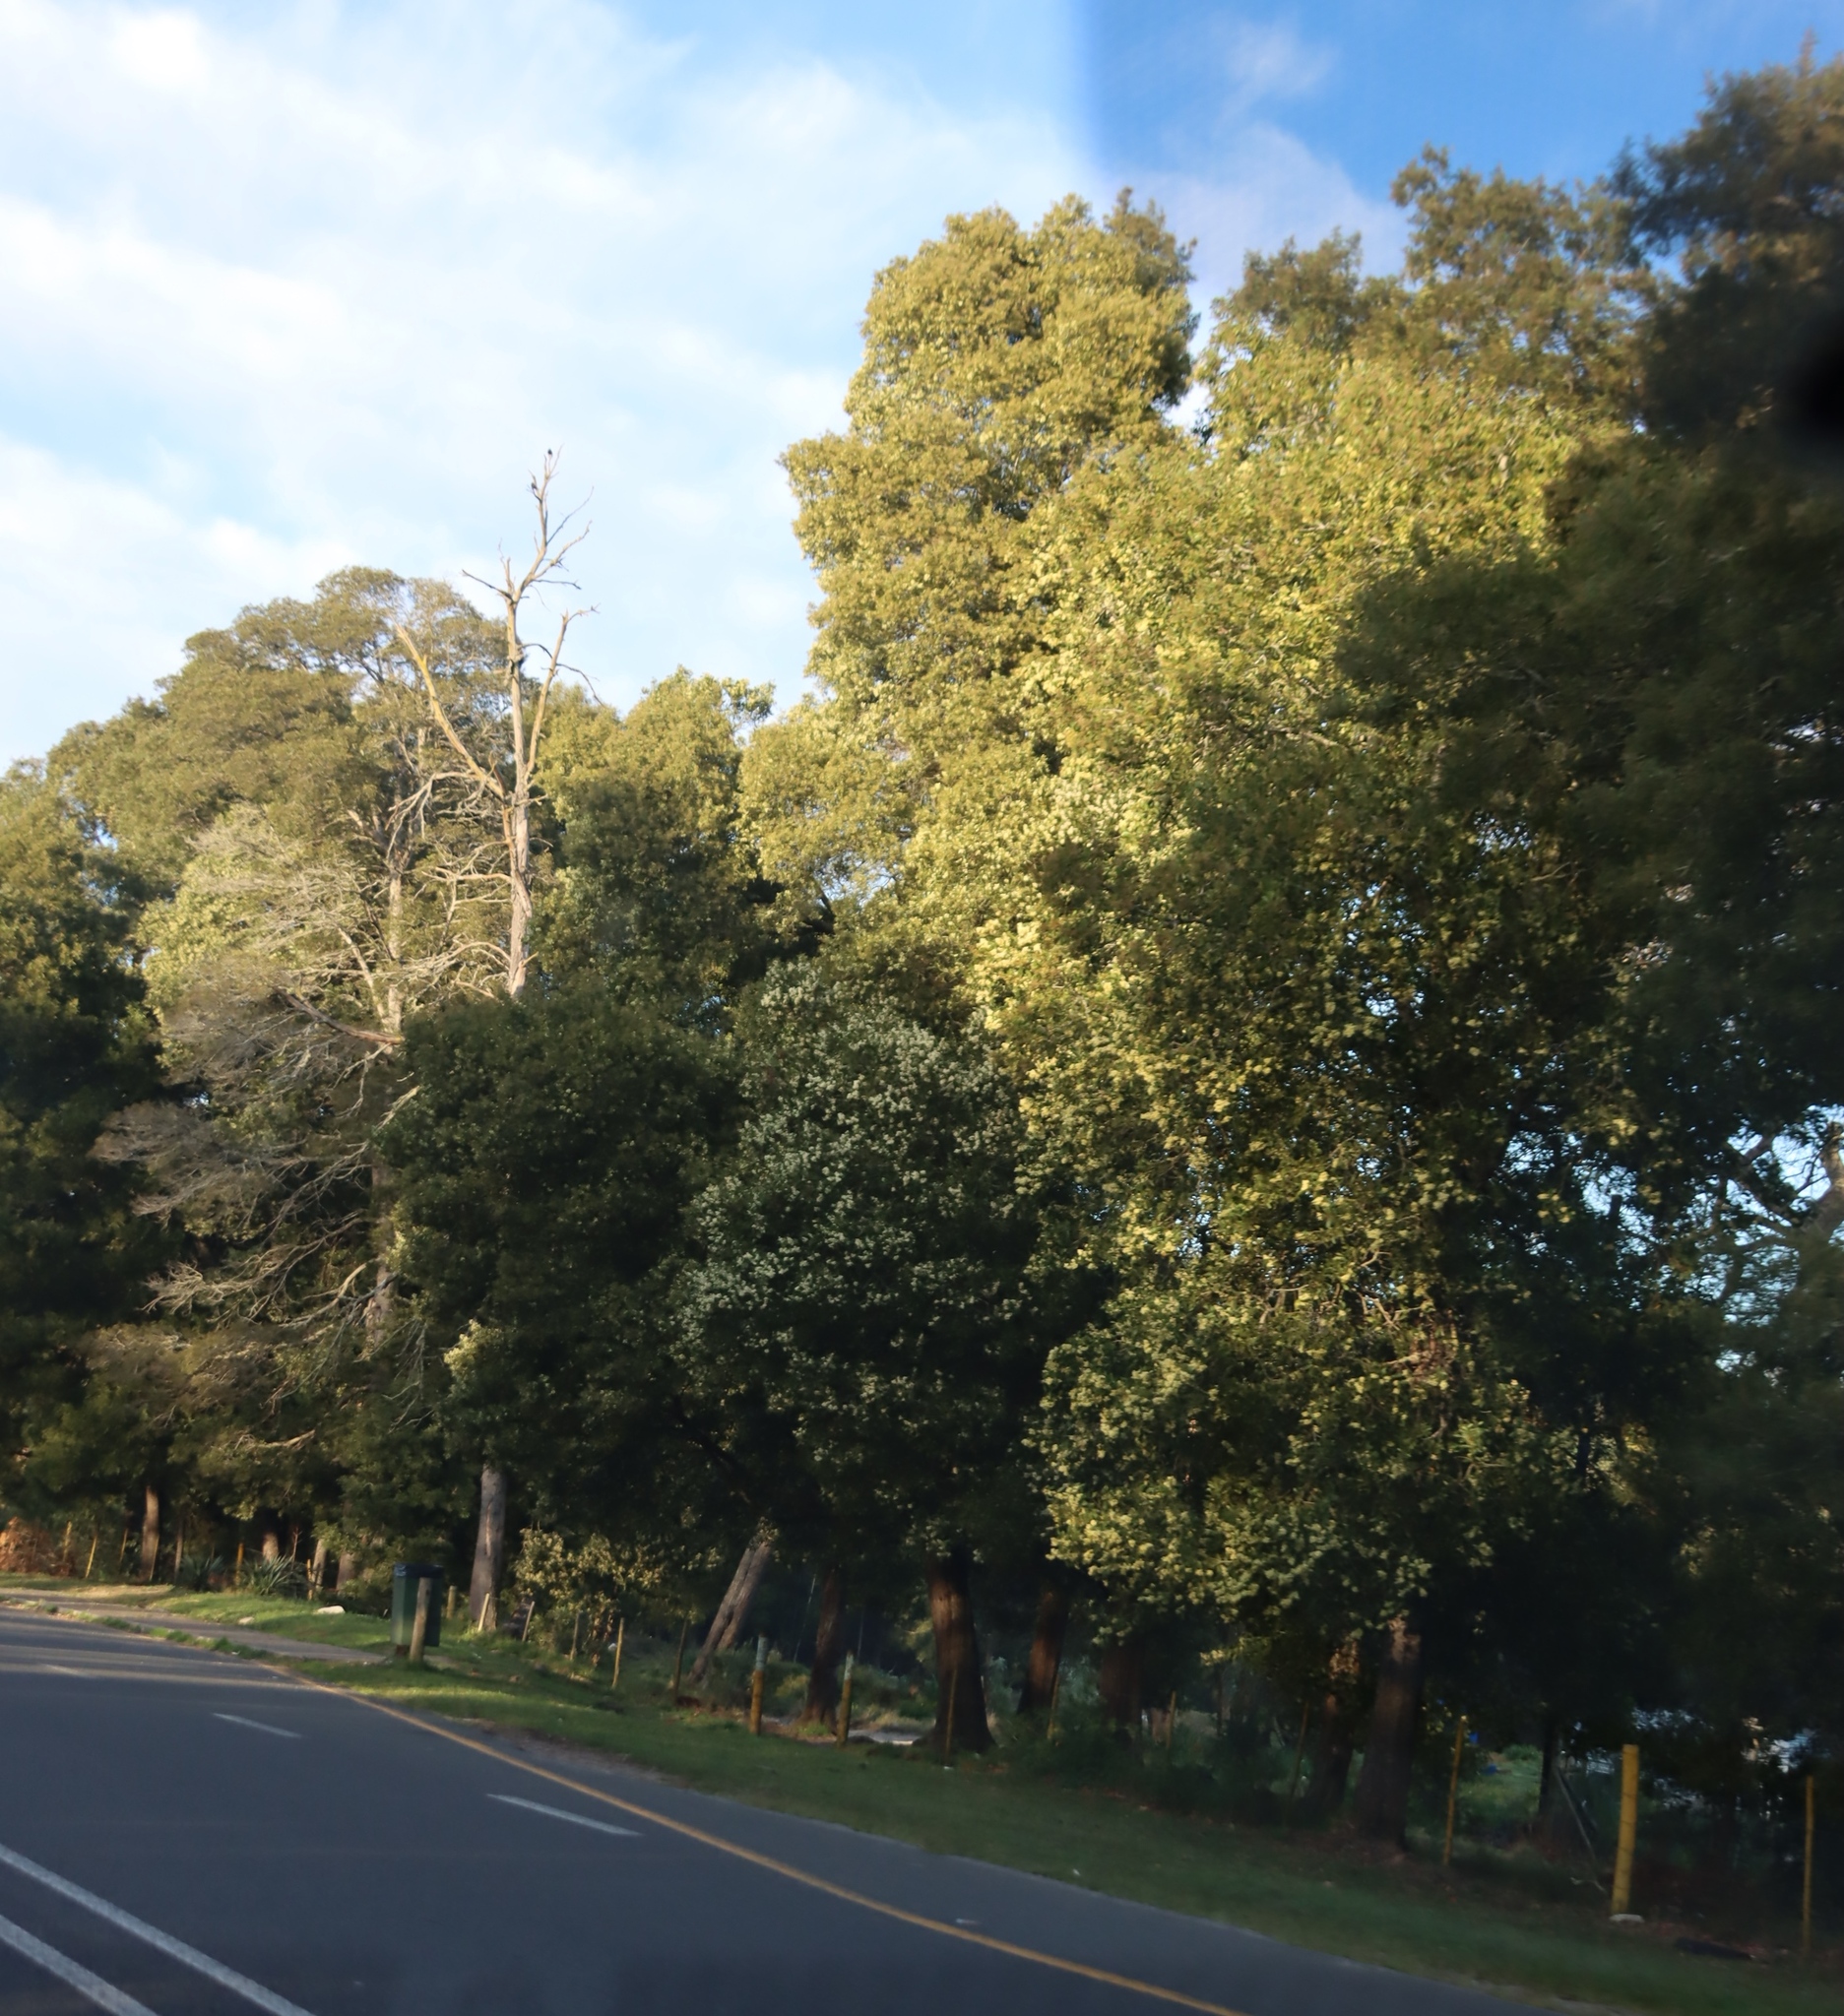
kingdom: Plantae
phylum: Tracheophyta
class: Magnoliopsida
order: Fabales
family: Fabaceae
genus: Acacia
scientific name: Acacia melanoxylon
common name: Blackwood
